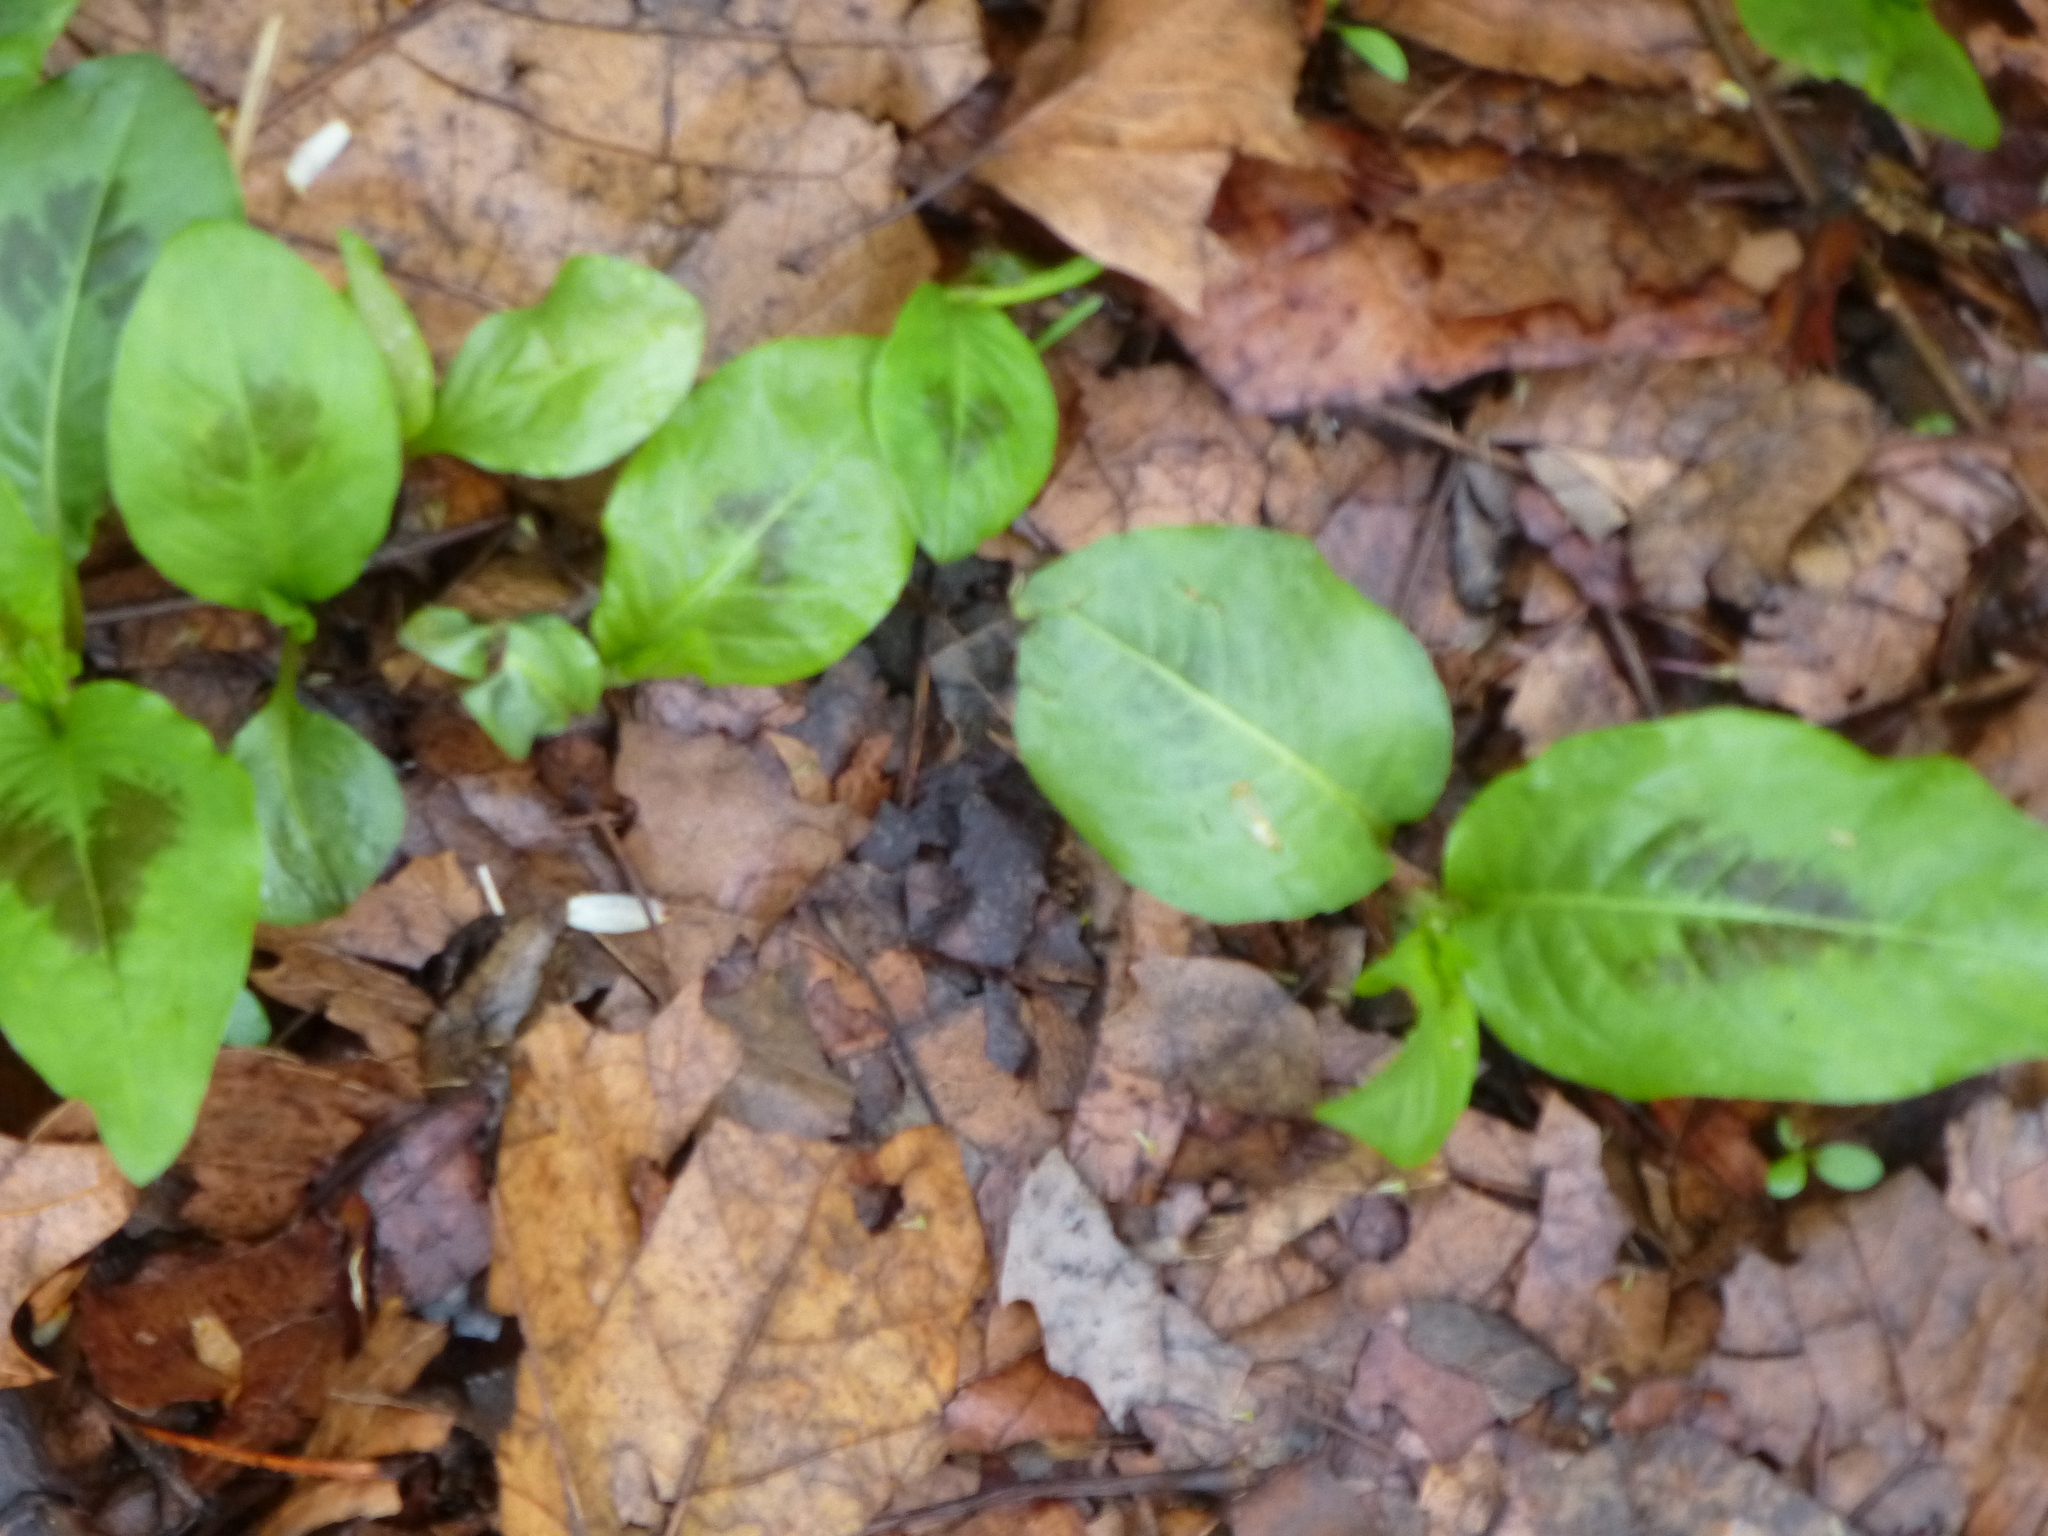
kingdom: Plantae
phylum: Tracheophyta
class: Magnoliopsida
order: Caryophyllales
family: Polygonaceae
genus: Persicaria
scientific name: Persicaria virginiana
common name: Jumpseed
